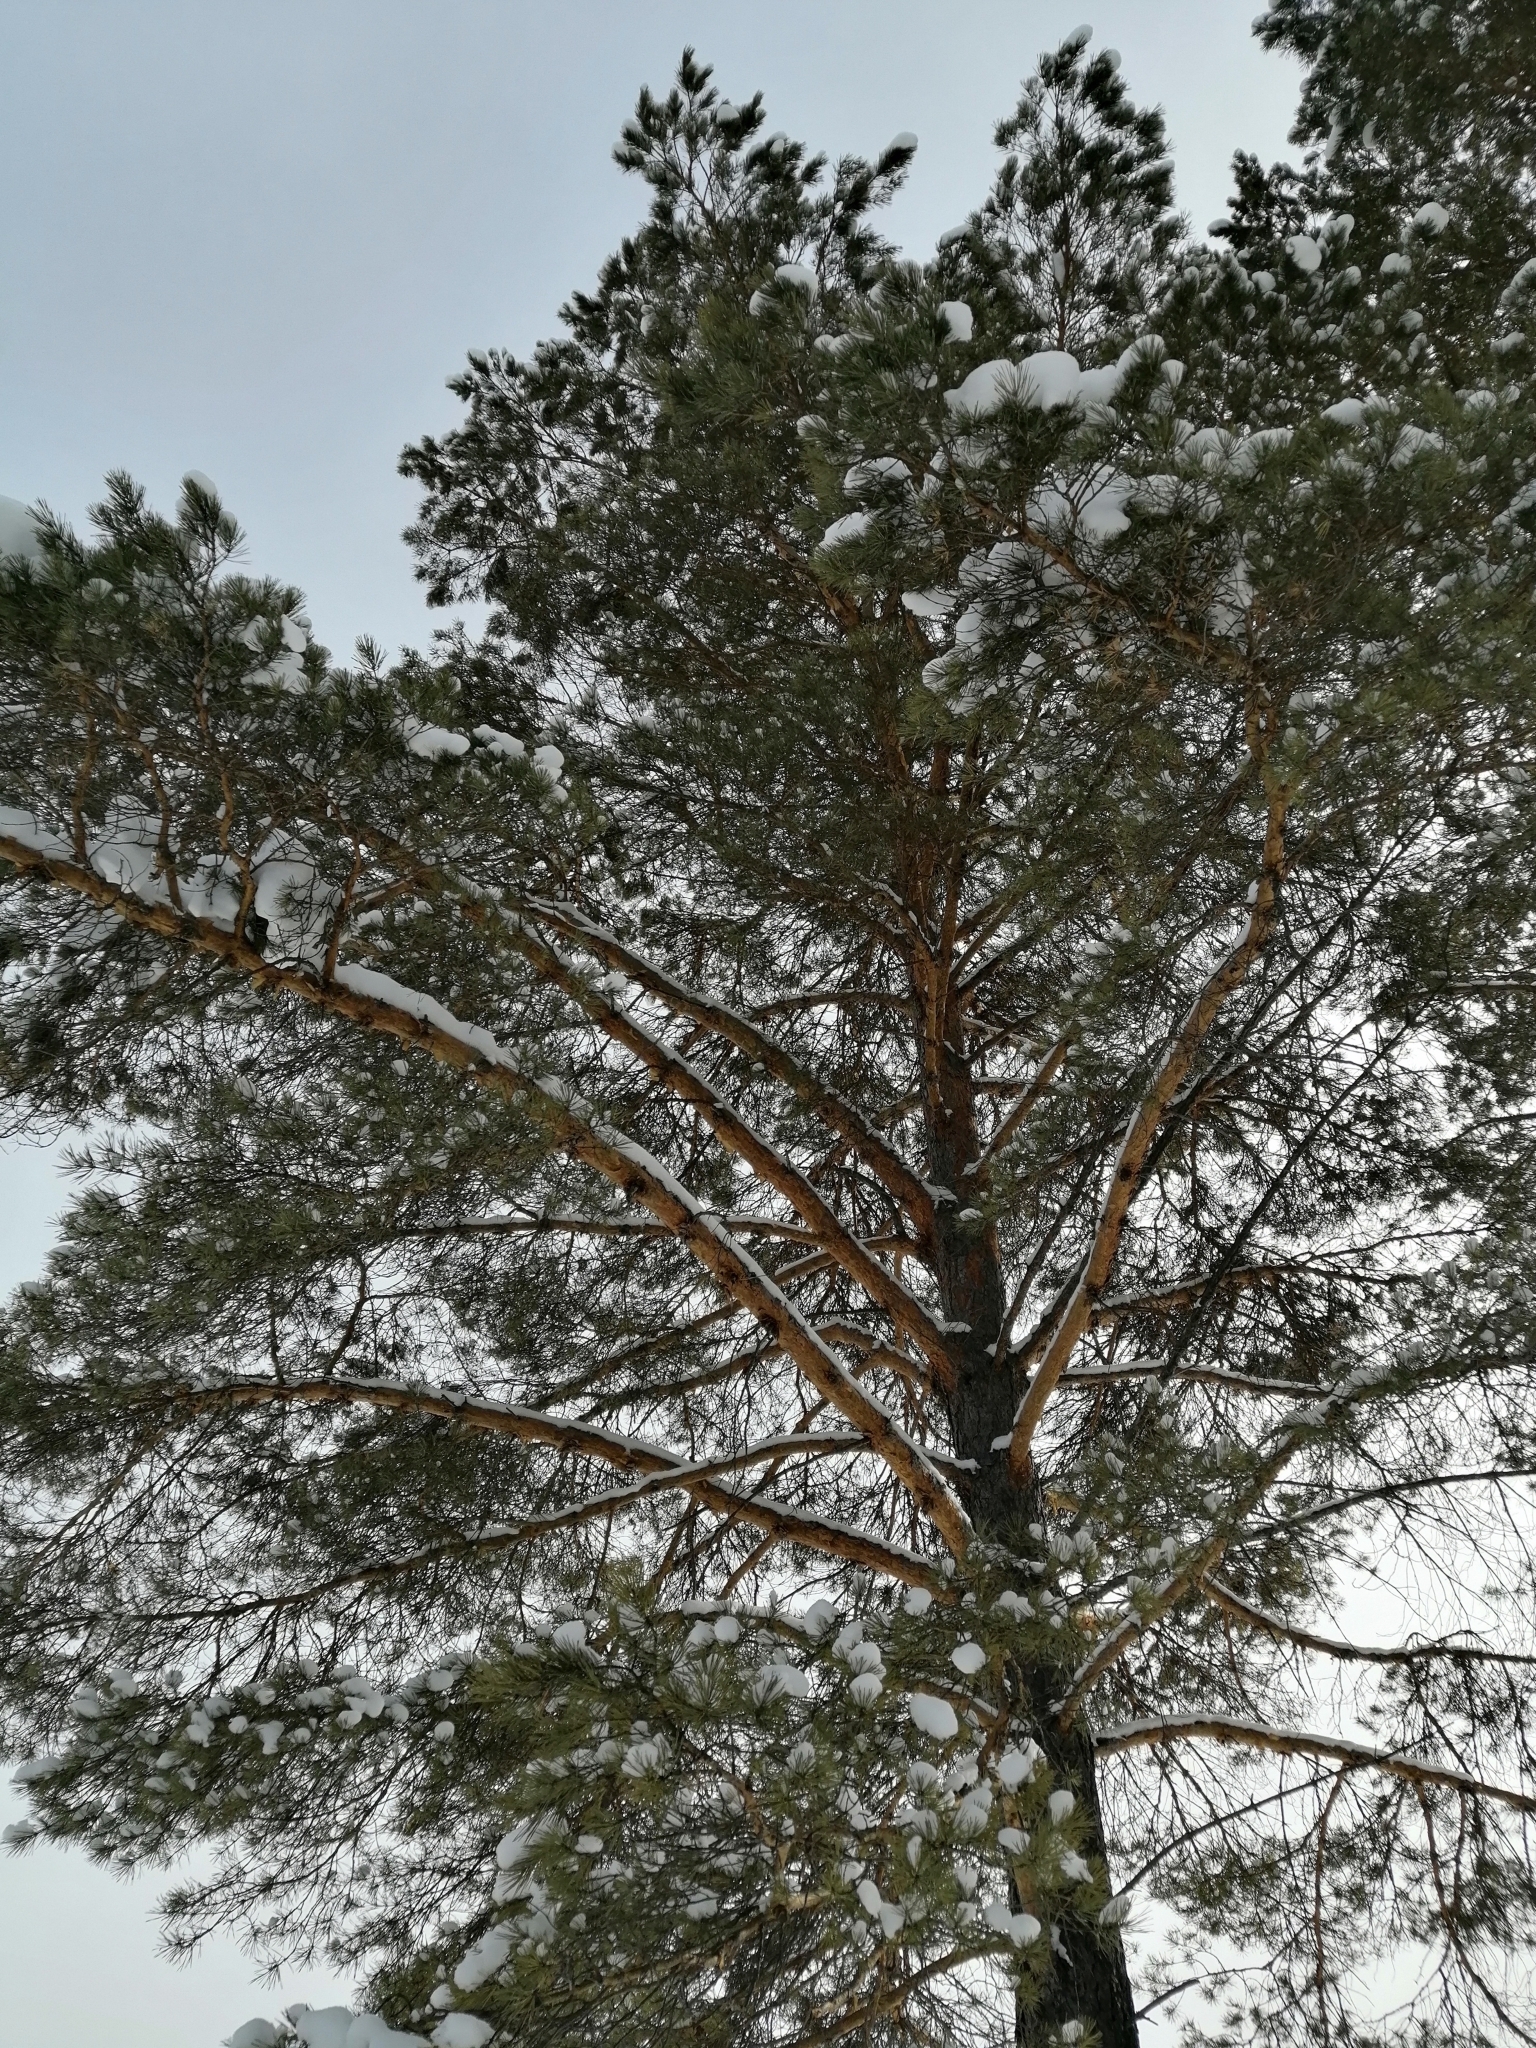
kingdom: Plantae
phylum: Tracheophyta
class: Pinopsida
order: Pinales
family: Pinaceae
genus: Pinus
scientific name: Pinus sylvestris
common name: Scots pine
